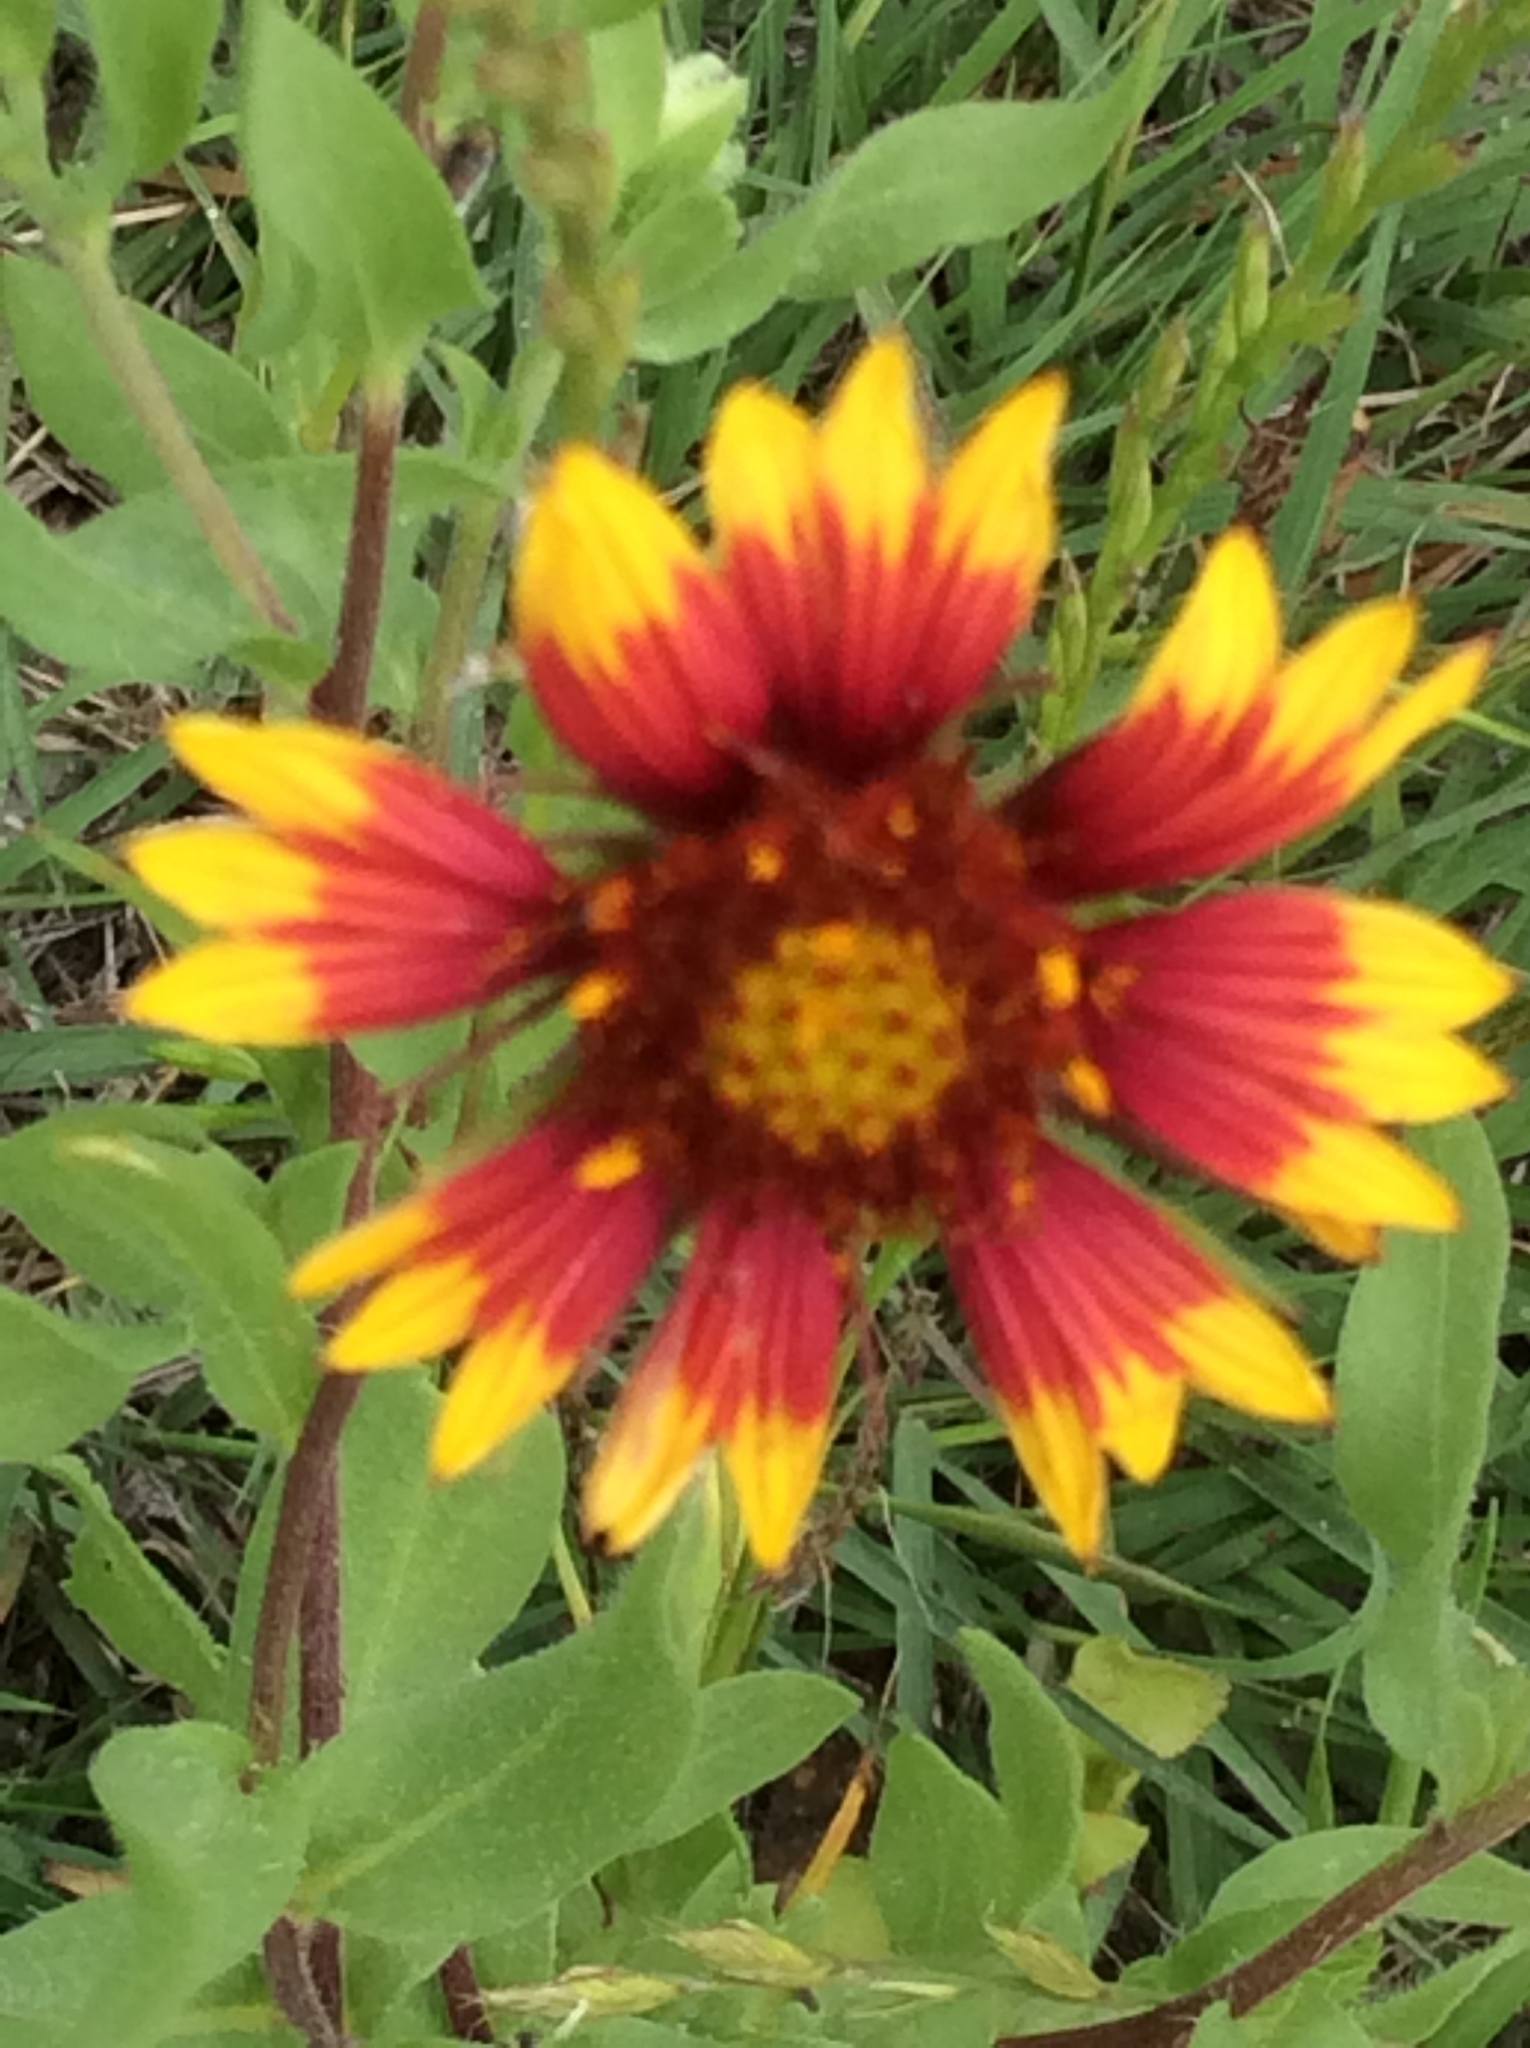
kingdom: Plantae
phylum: Tracheophyta
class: Magnoliopsida
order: Asterales
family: Asteraceae
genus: Gaillardia
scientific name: Gaillardia pulchella
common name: Firewheel
